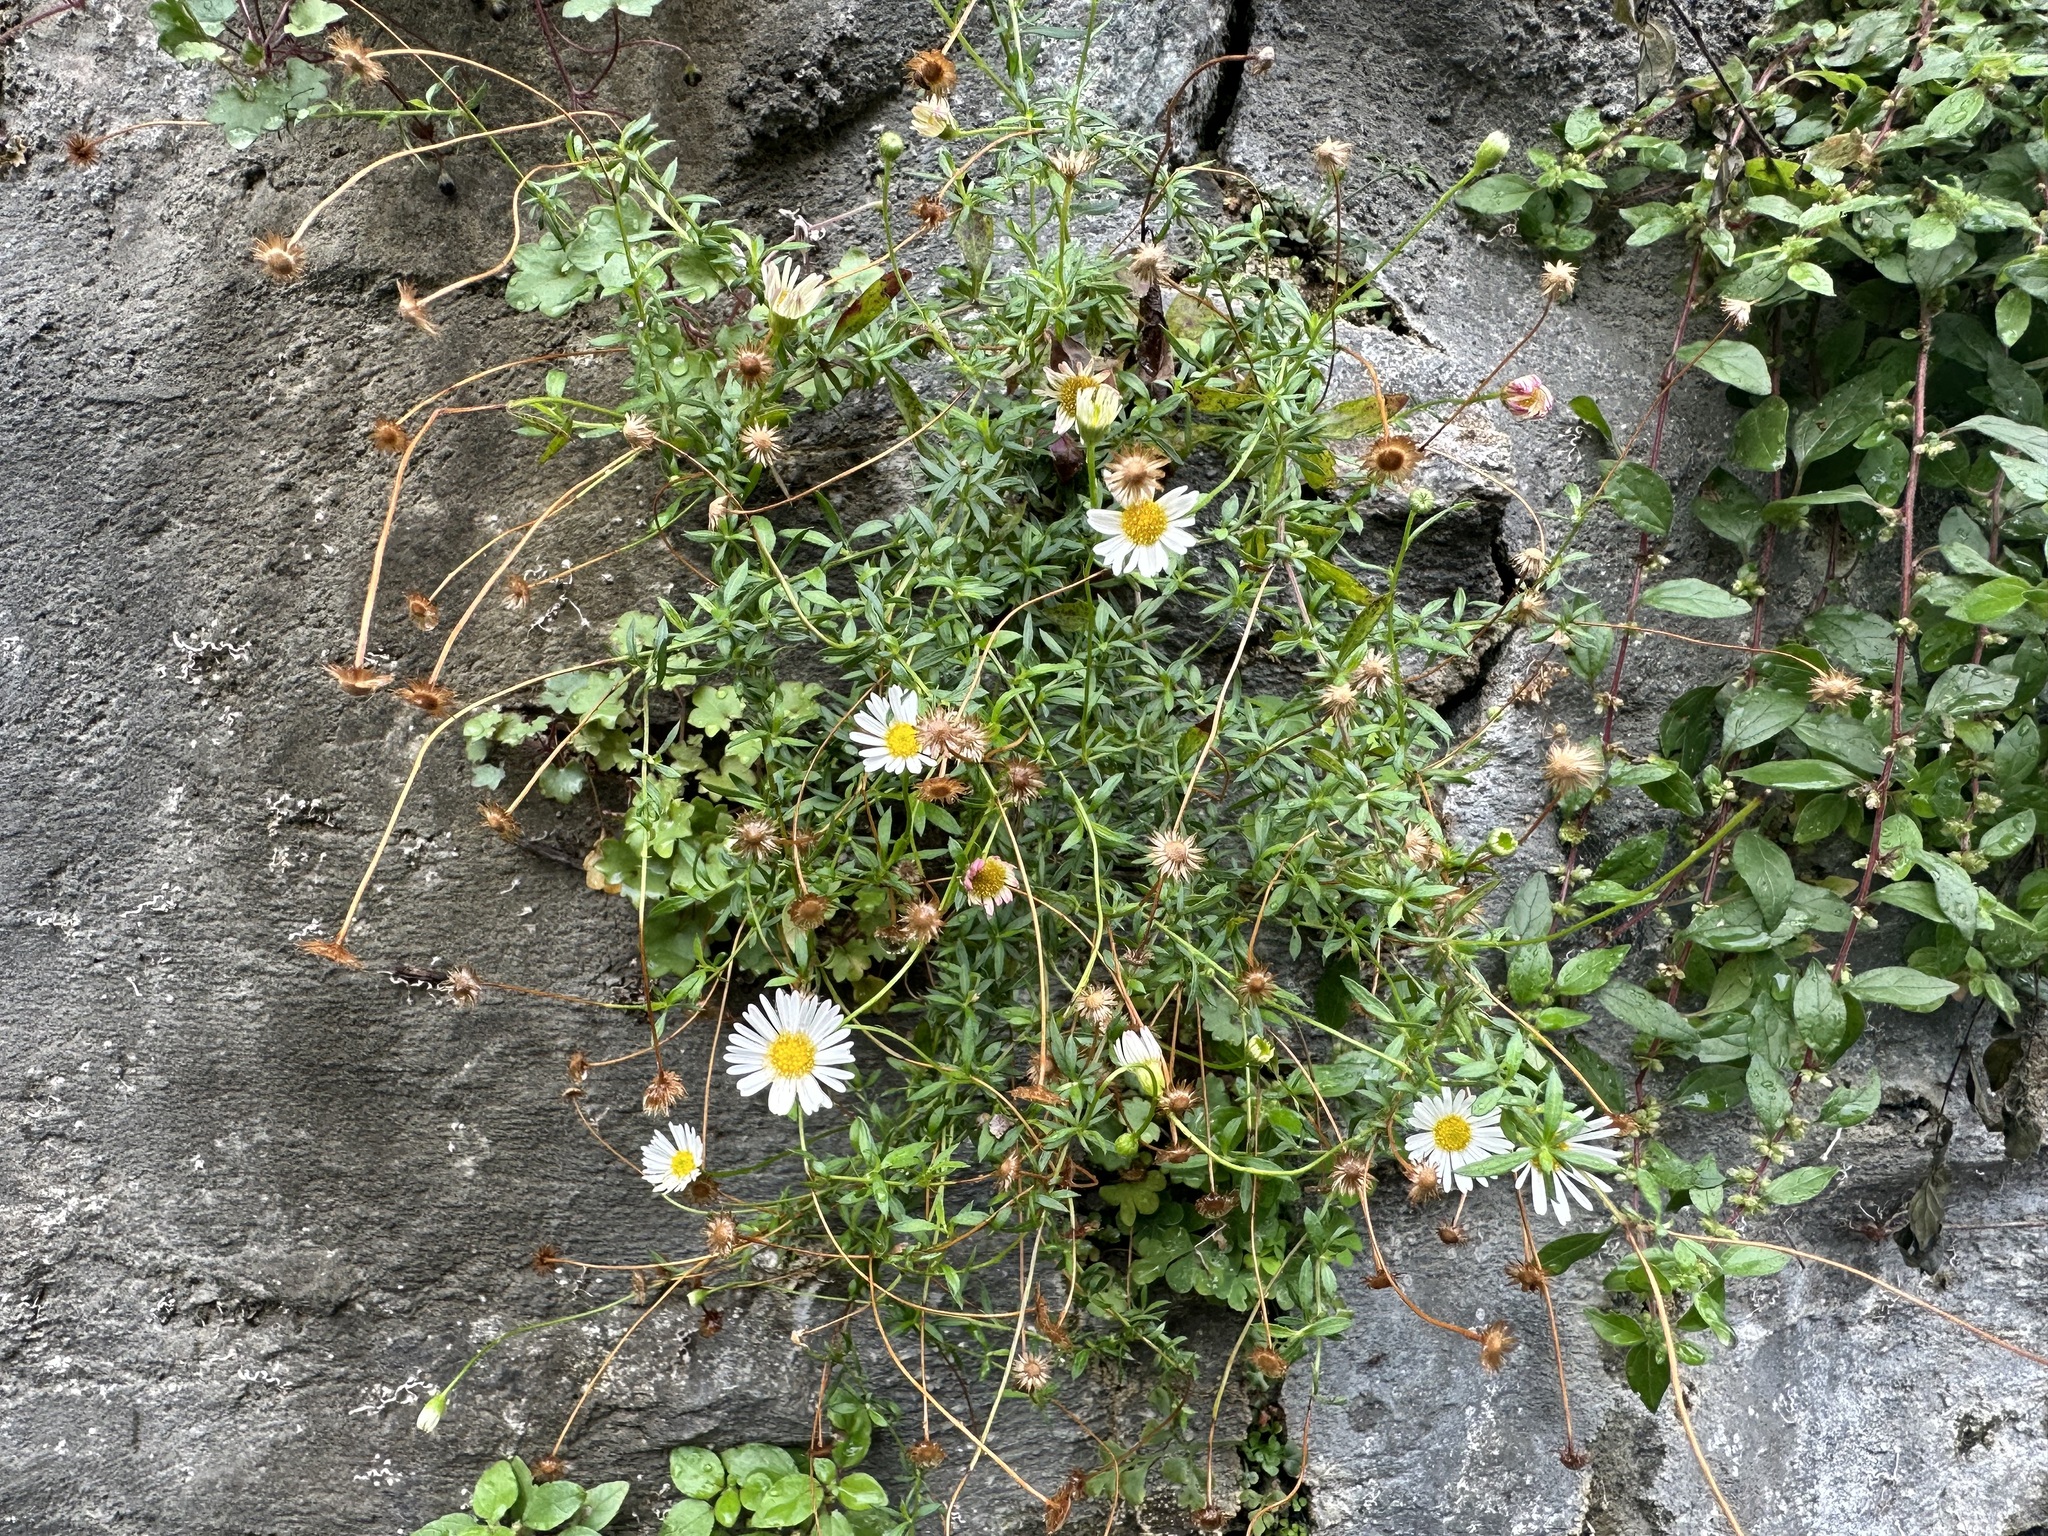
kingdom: Plantae
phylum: Tracheophyta
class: Magnoliopsida
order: Asterales
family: Asteraceae
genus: Erigeron
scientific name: Erigeron karvinskianus
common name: Mexican fleabane
